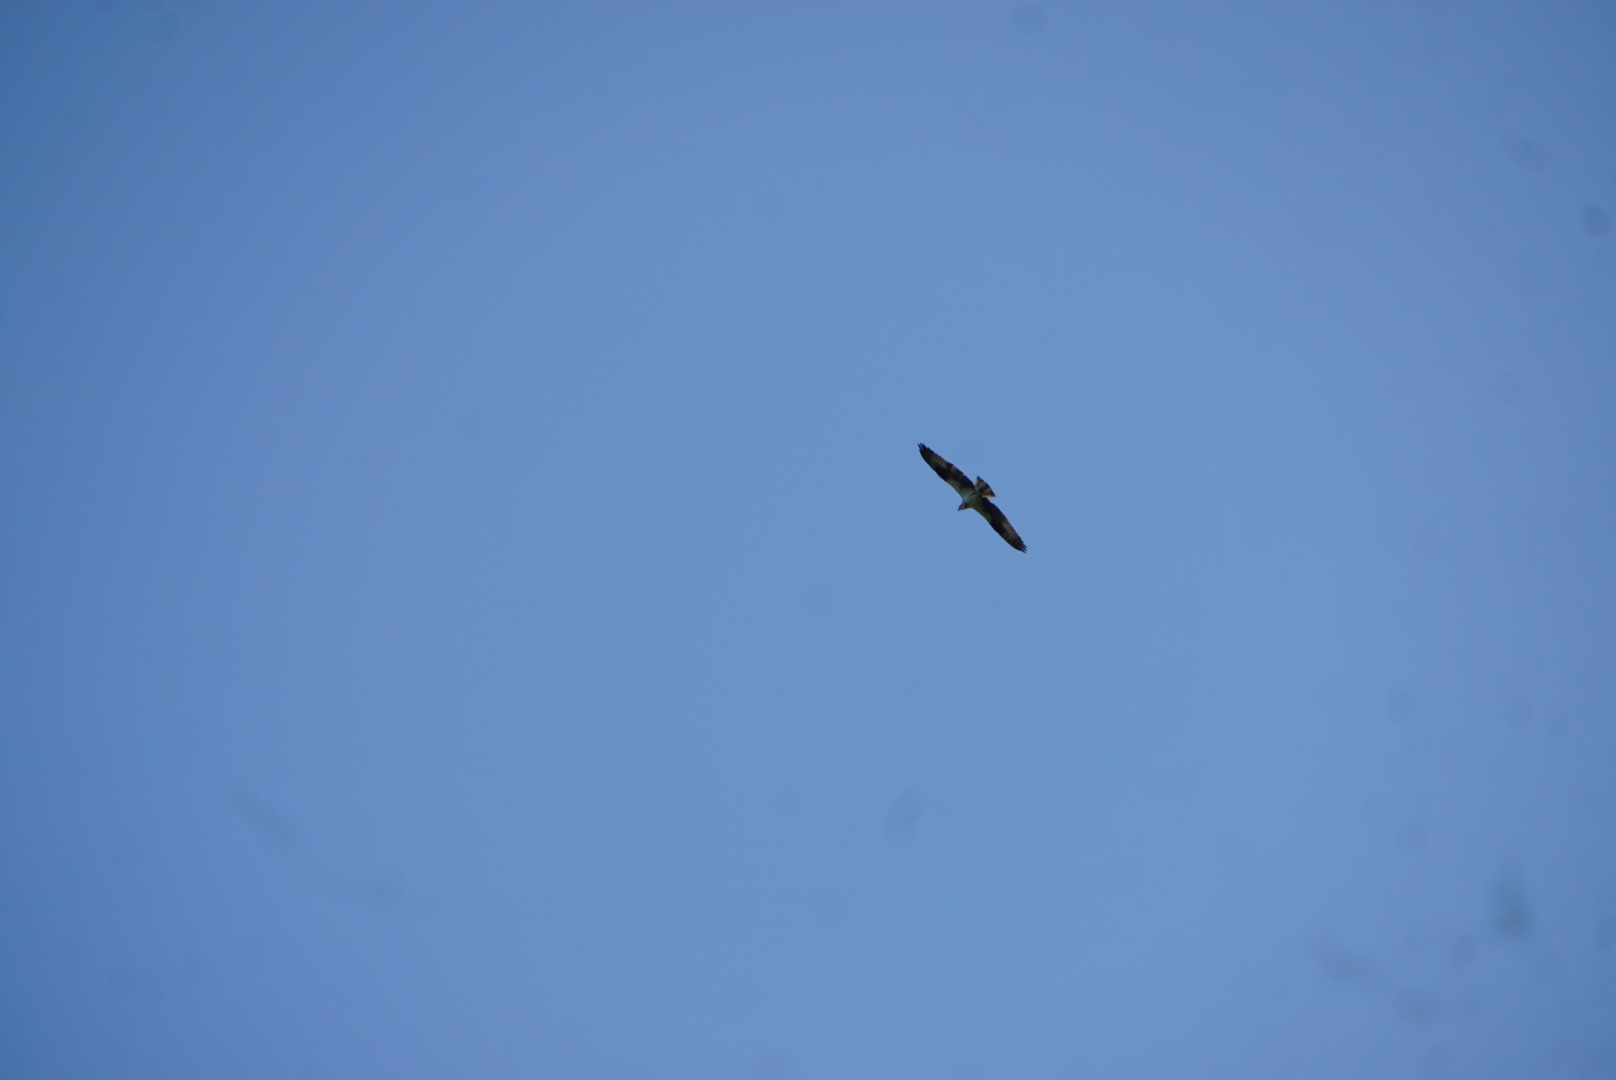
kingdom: Animalia
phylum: Chordata
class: Aves
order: Accipitriformes
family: Pandionidae
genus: Pandion
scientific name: Pandion haliaetus
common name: Osprey
